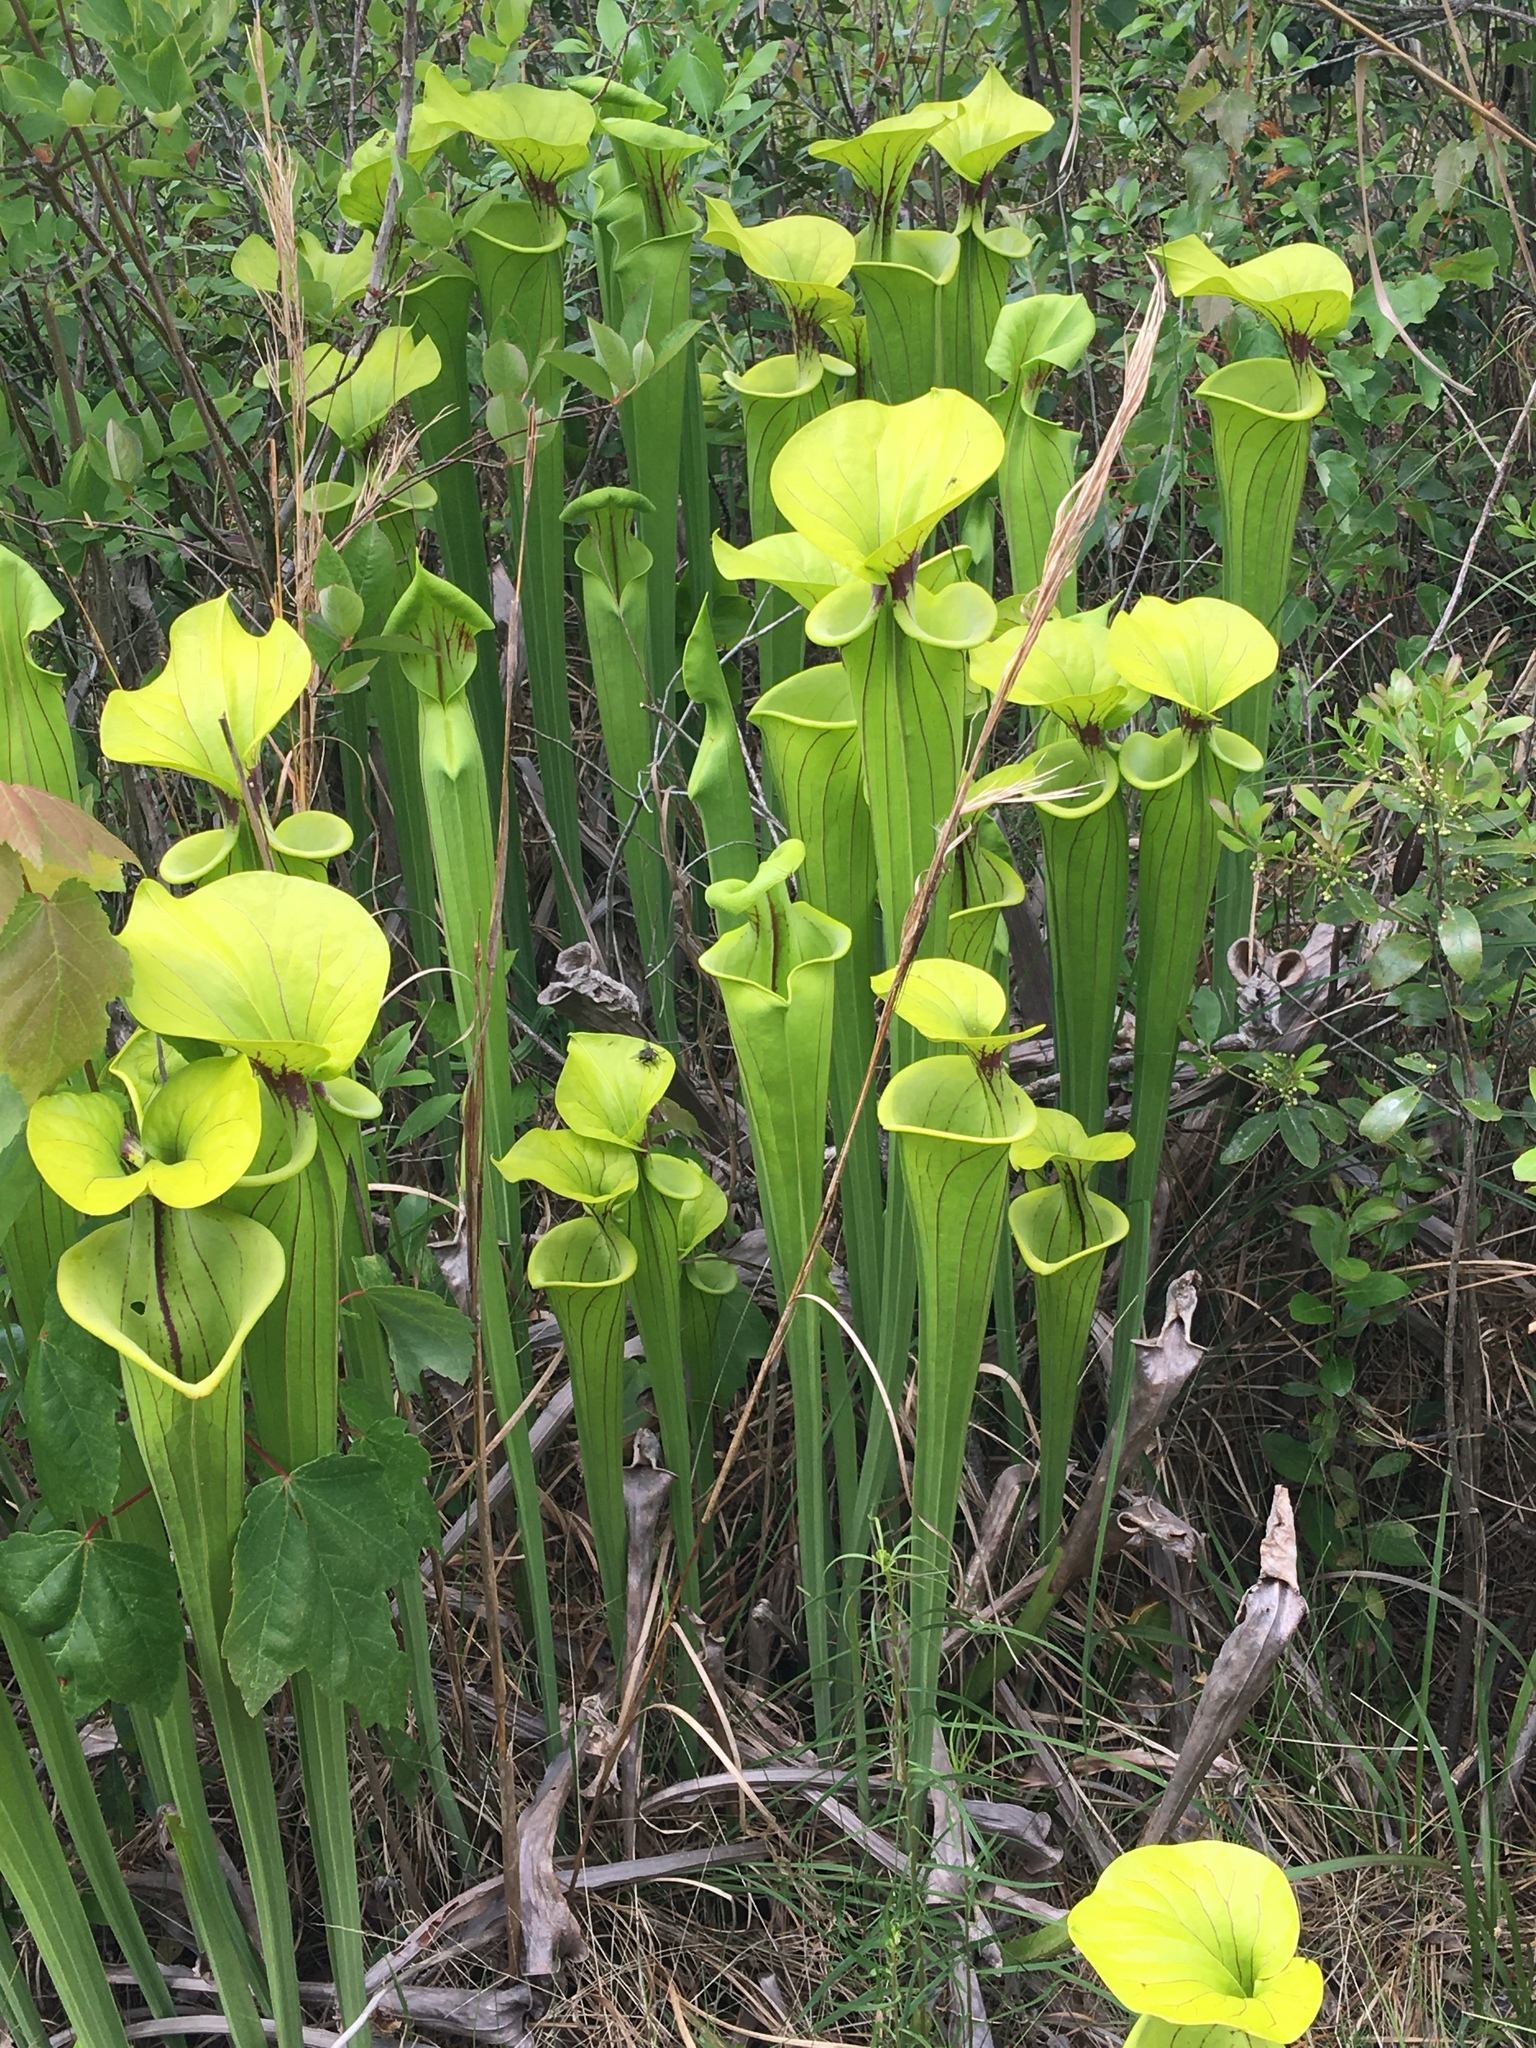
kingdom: Plantae
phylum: Tracheophyta
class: Magnoliopsida
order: Ericales
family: Sarraceniaceae
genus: Sarracenia
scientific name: Sarracenia flava
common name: Trumpets
